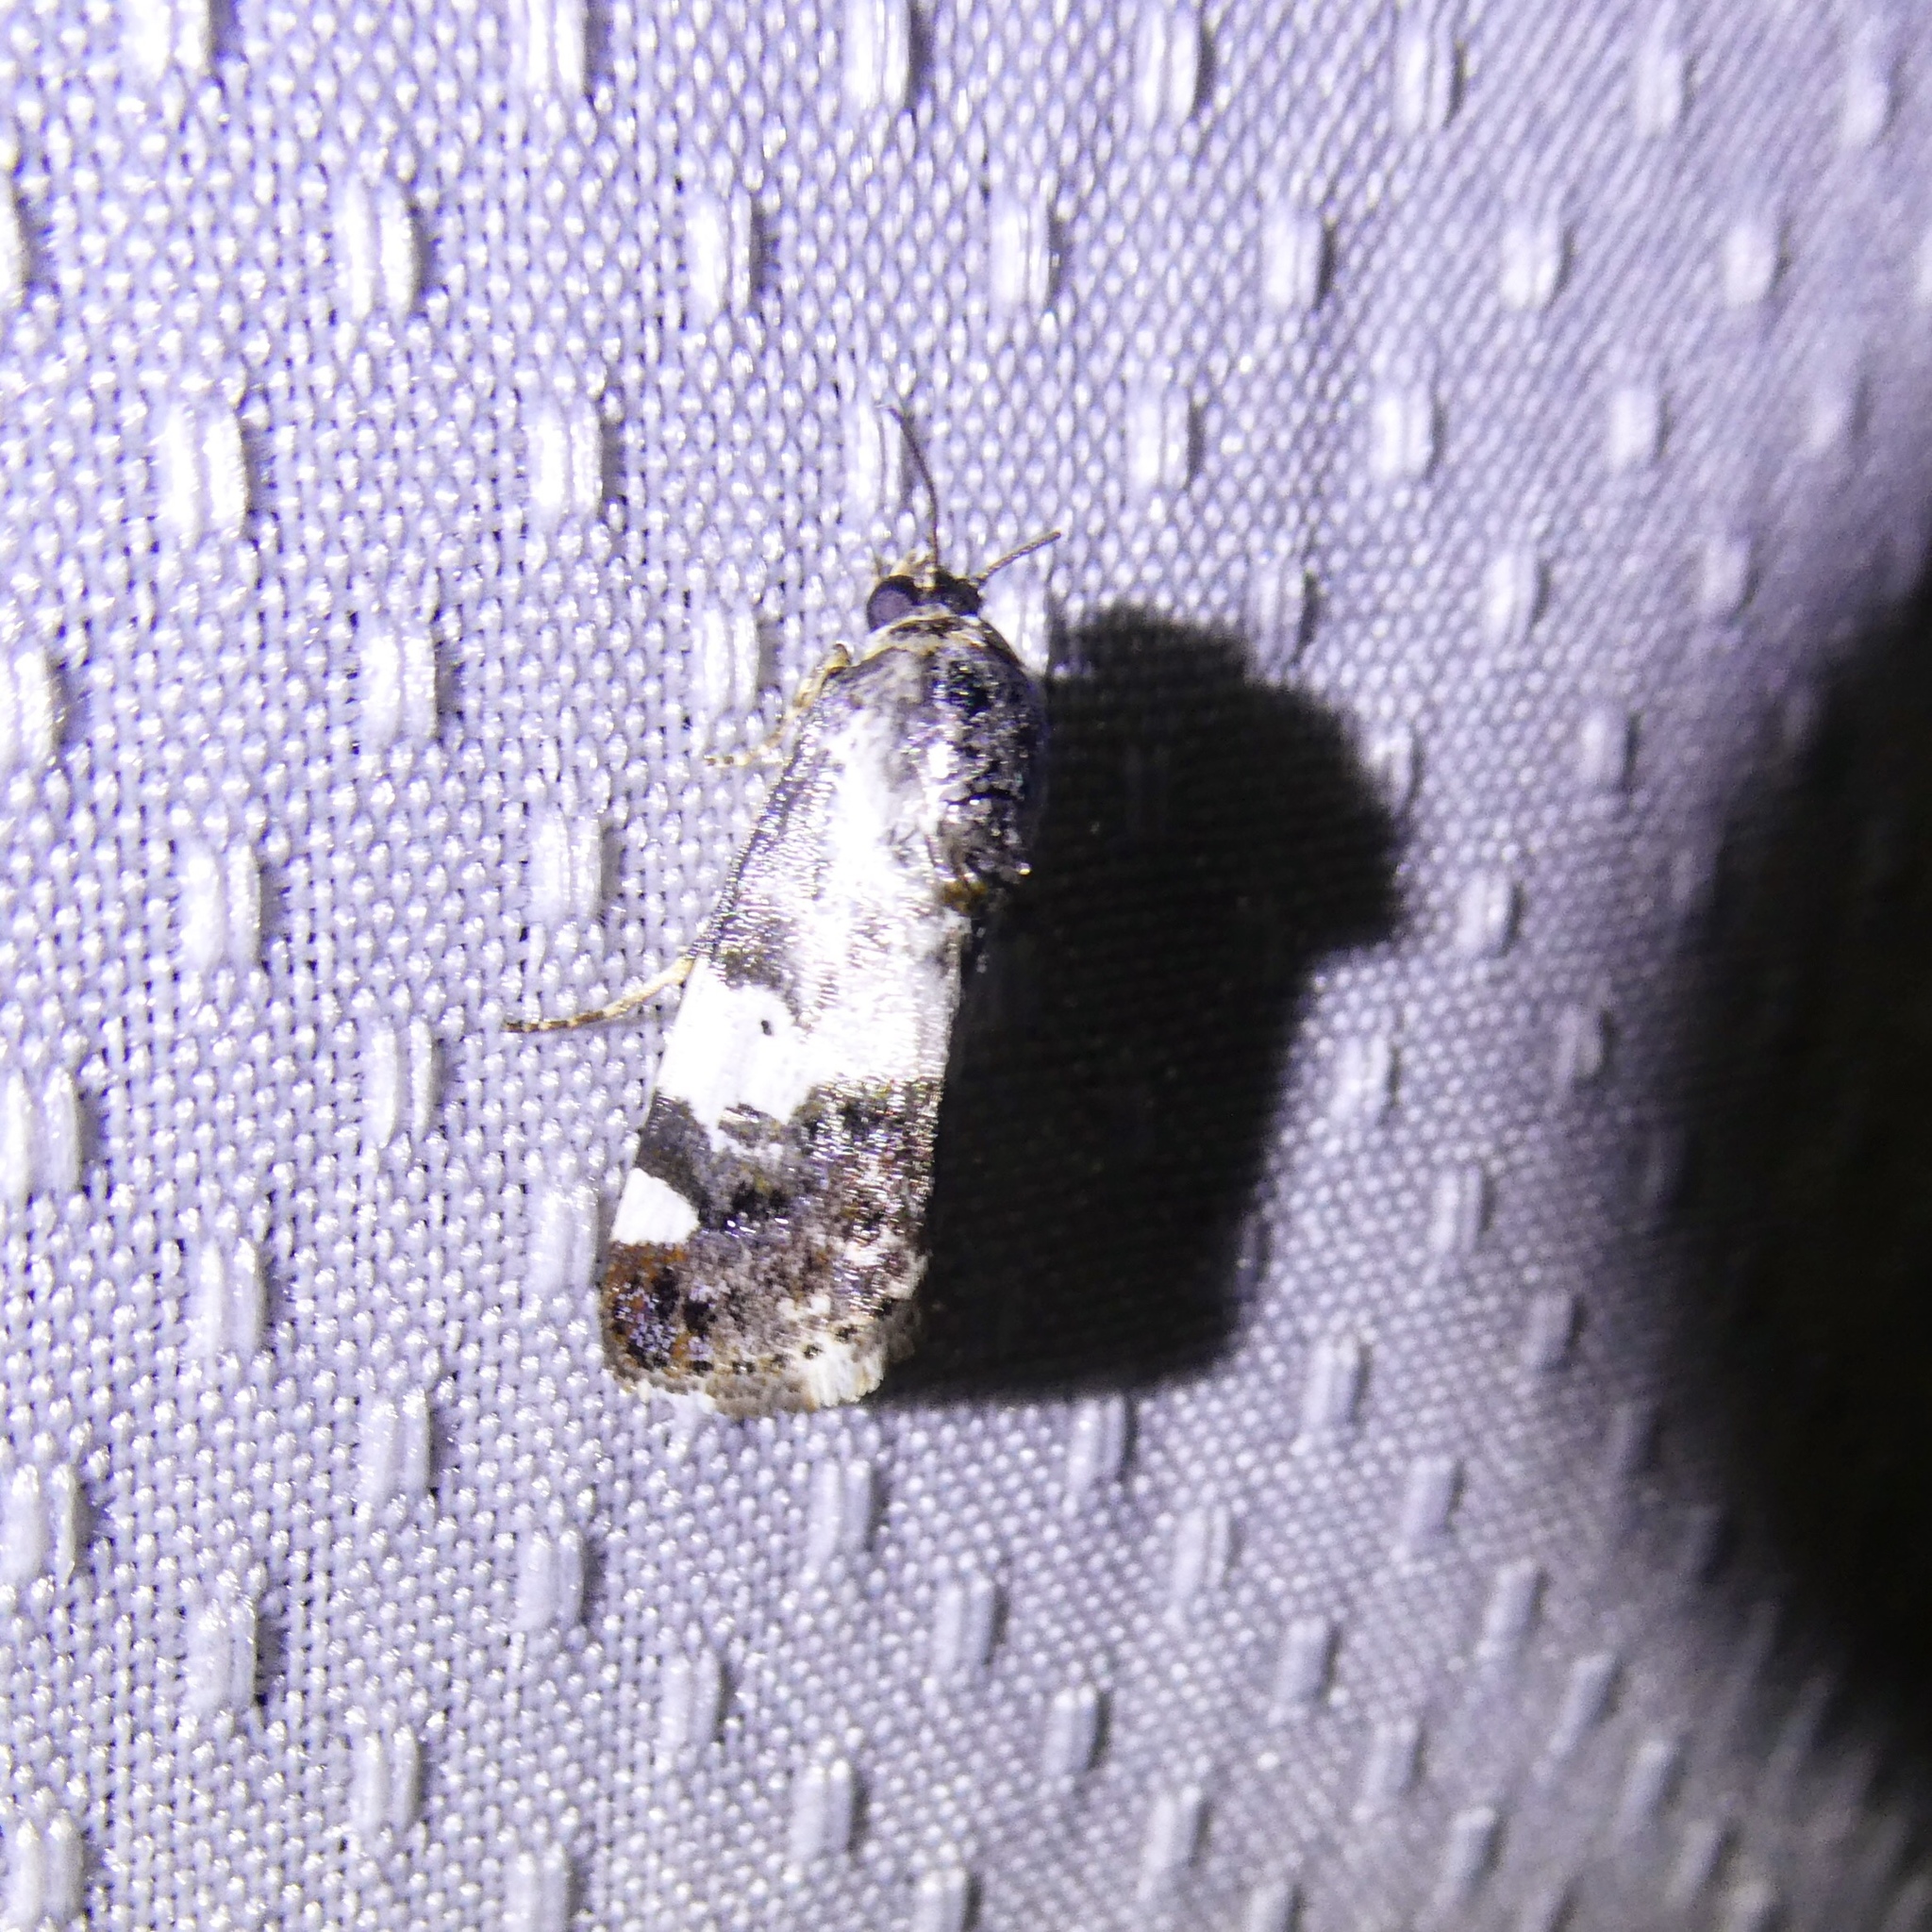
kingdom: Animalia
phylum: Arthropoda
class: Insecta
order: Lepidoptera
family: Noctuidae
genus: Acontia
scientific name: Acontia aprica
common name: Nun
